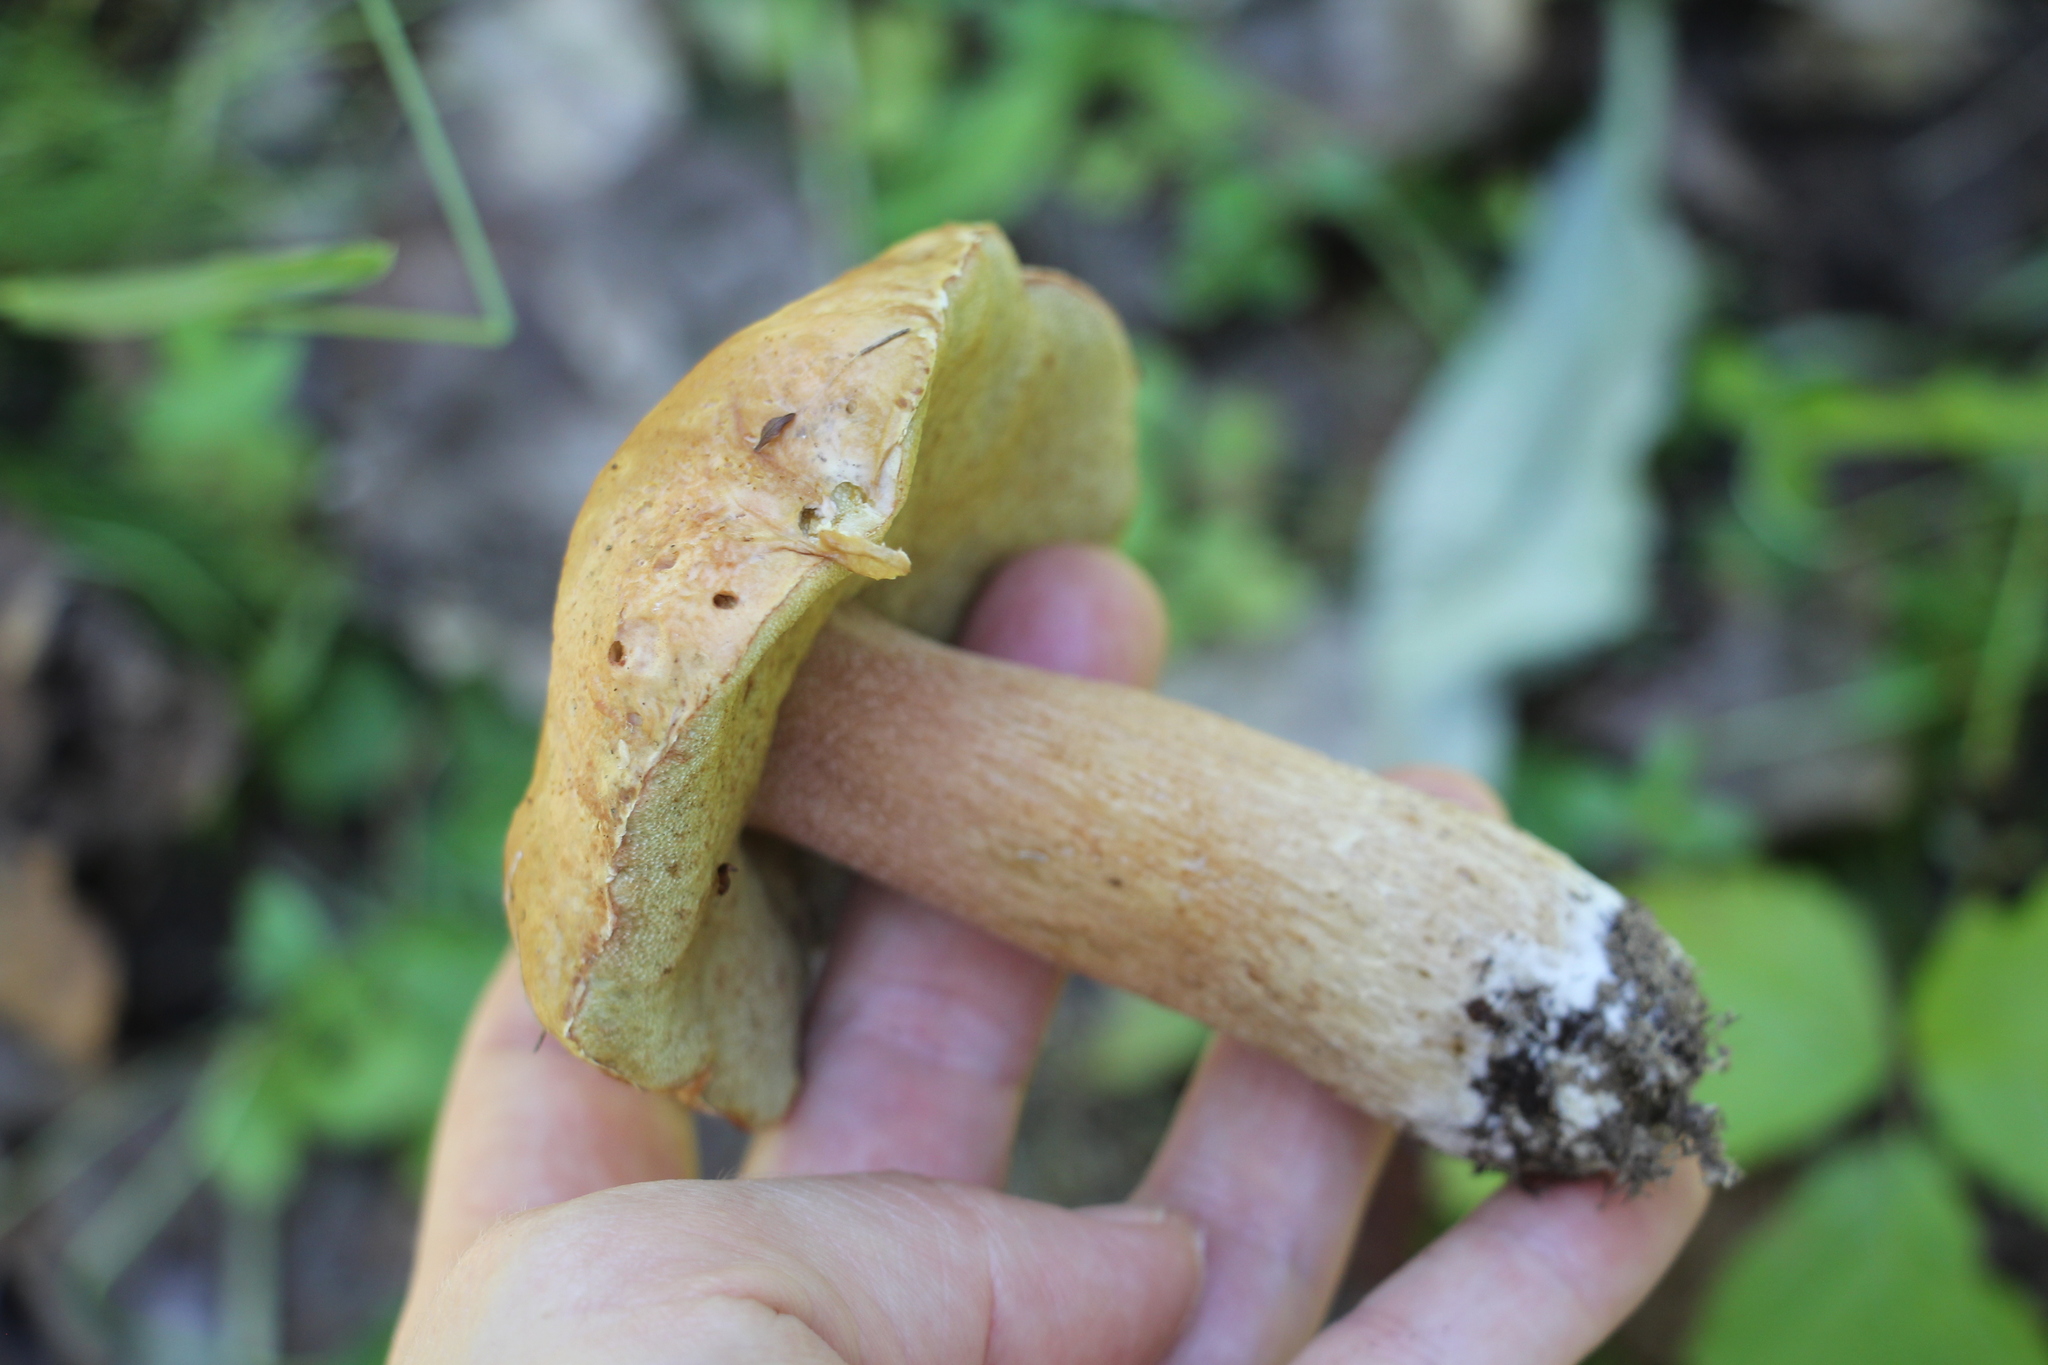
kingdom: Fungi
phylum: Basidiomycota
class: Agaricomycetes
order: Boletales
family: Boletaceae
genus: Boletus
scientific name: Boletus edulis
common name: Cep
